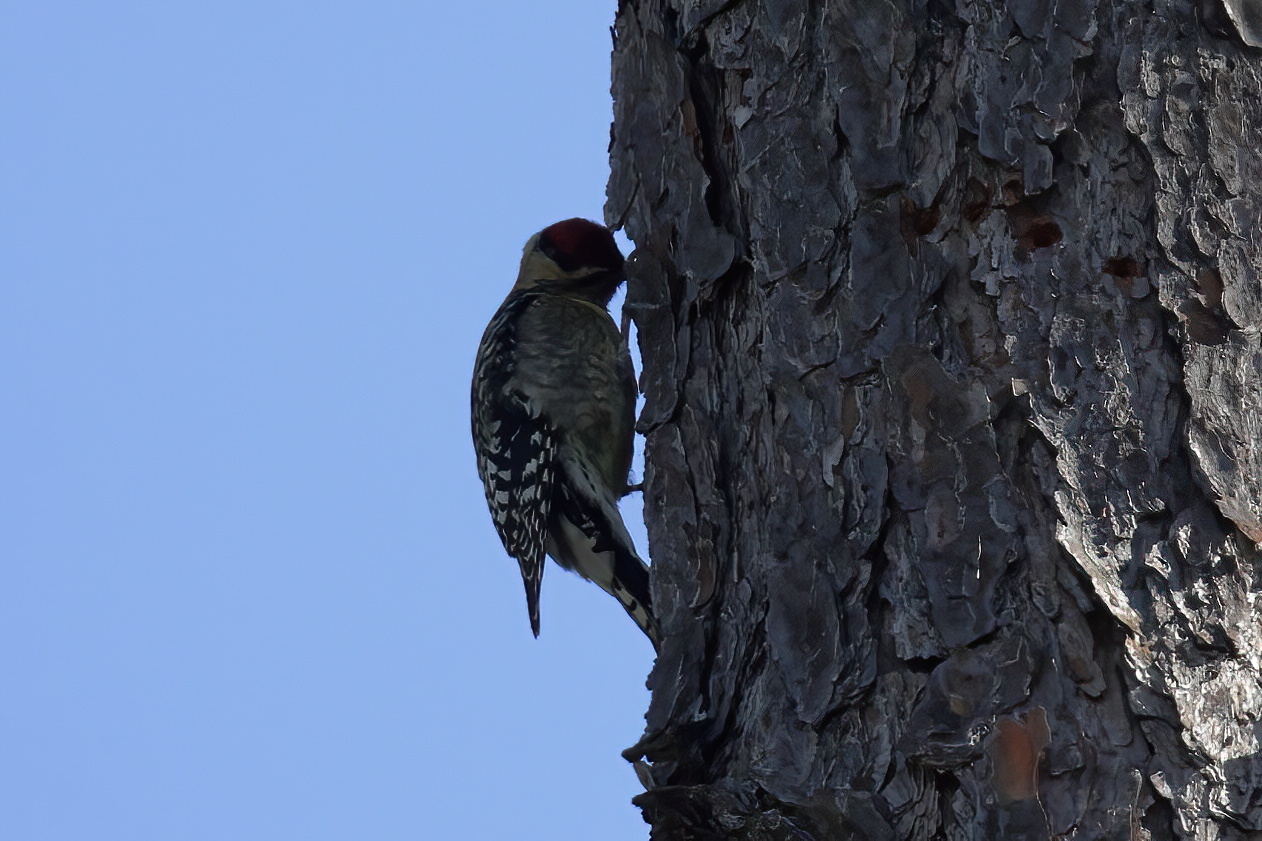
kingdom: Animalia
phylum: Chordata
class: Aves
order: Piciformes
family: Picidae
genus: Sphyrapicus
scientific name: Sphyrapicus varius
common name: Yellow-bellied sapsucker
